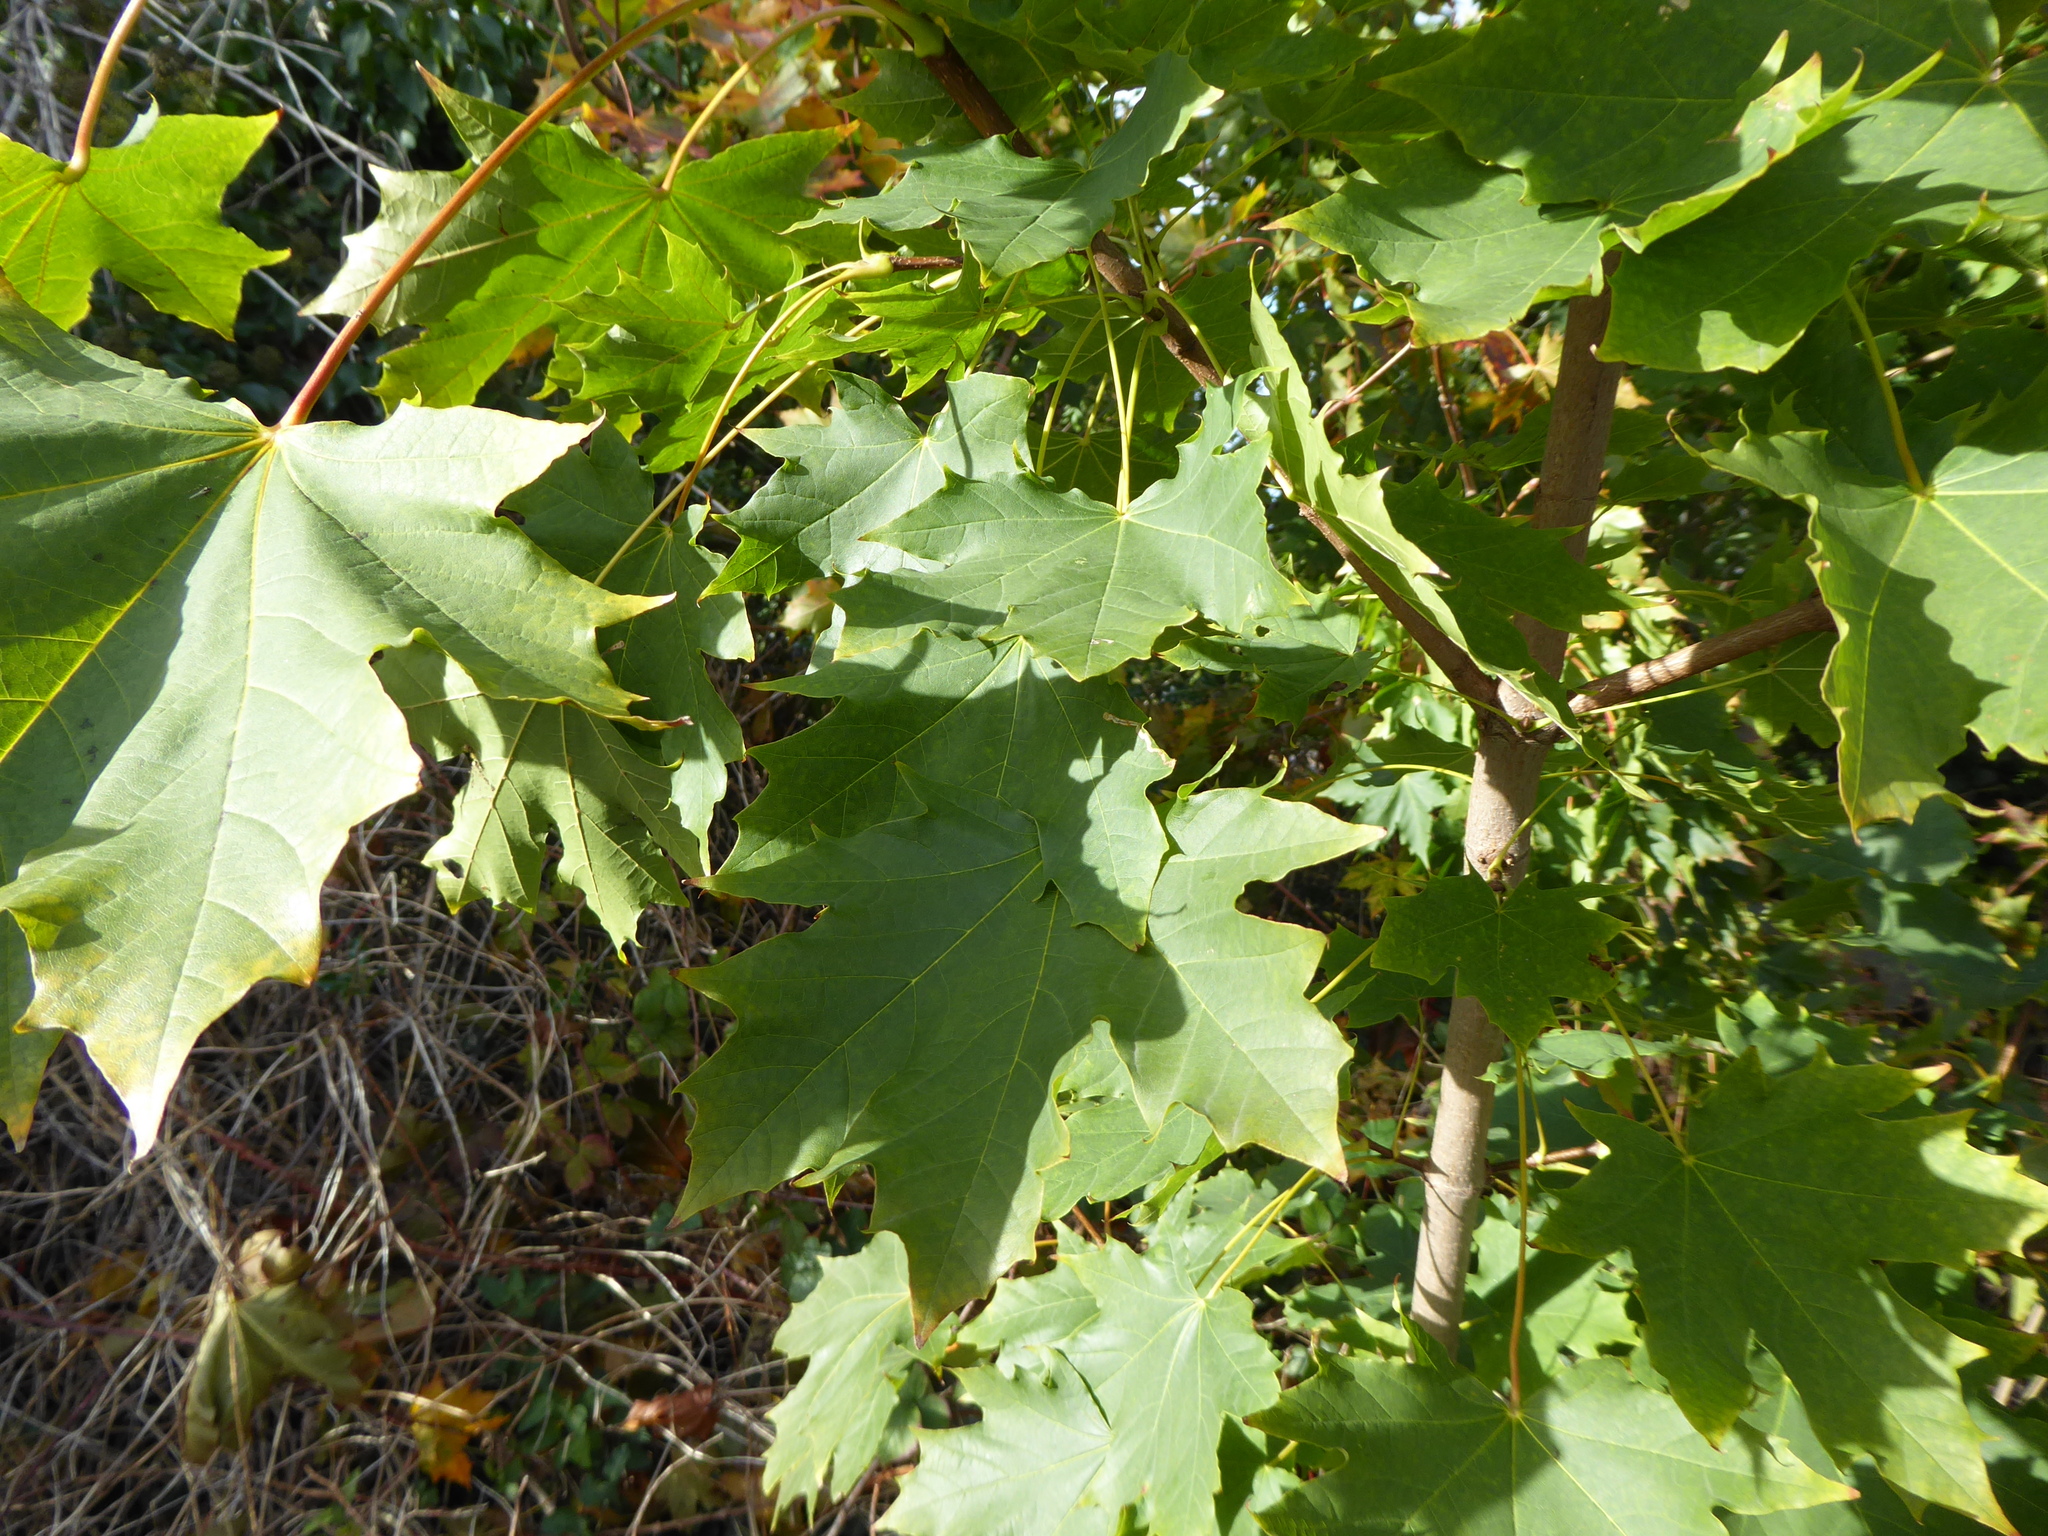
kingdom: Plantae
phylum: Tracheophyta
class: Magnoliopsida
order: Sapindales
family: Sapindaceae
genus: Acer
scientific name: Acer platanoides
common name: Norway maple
